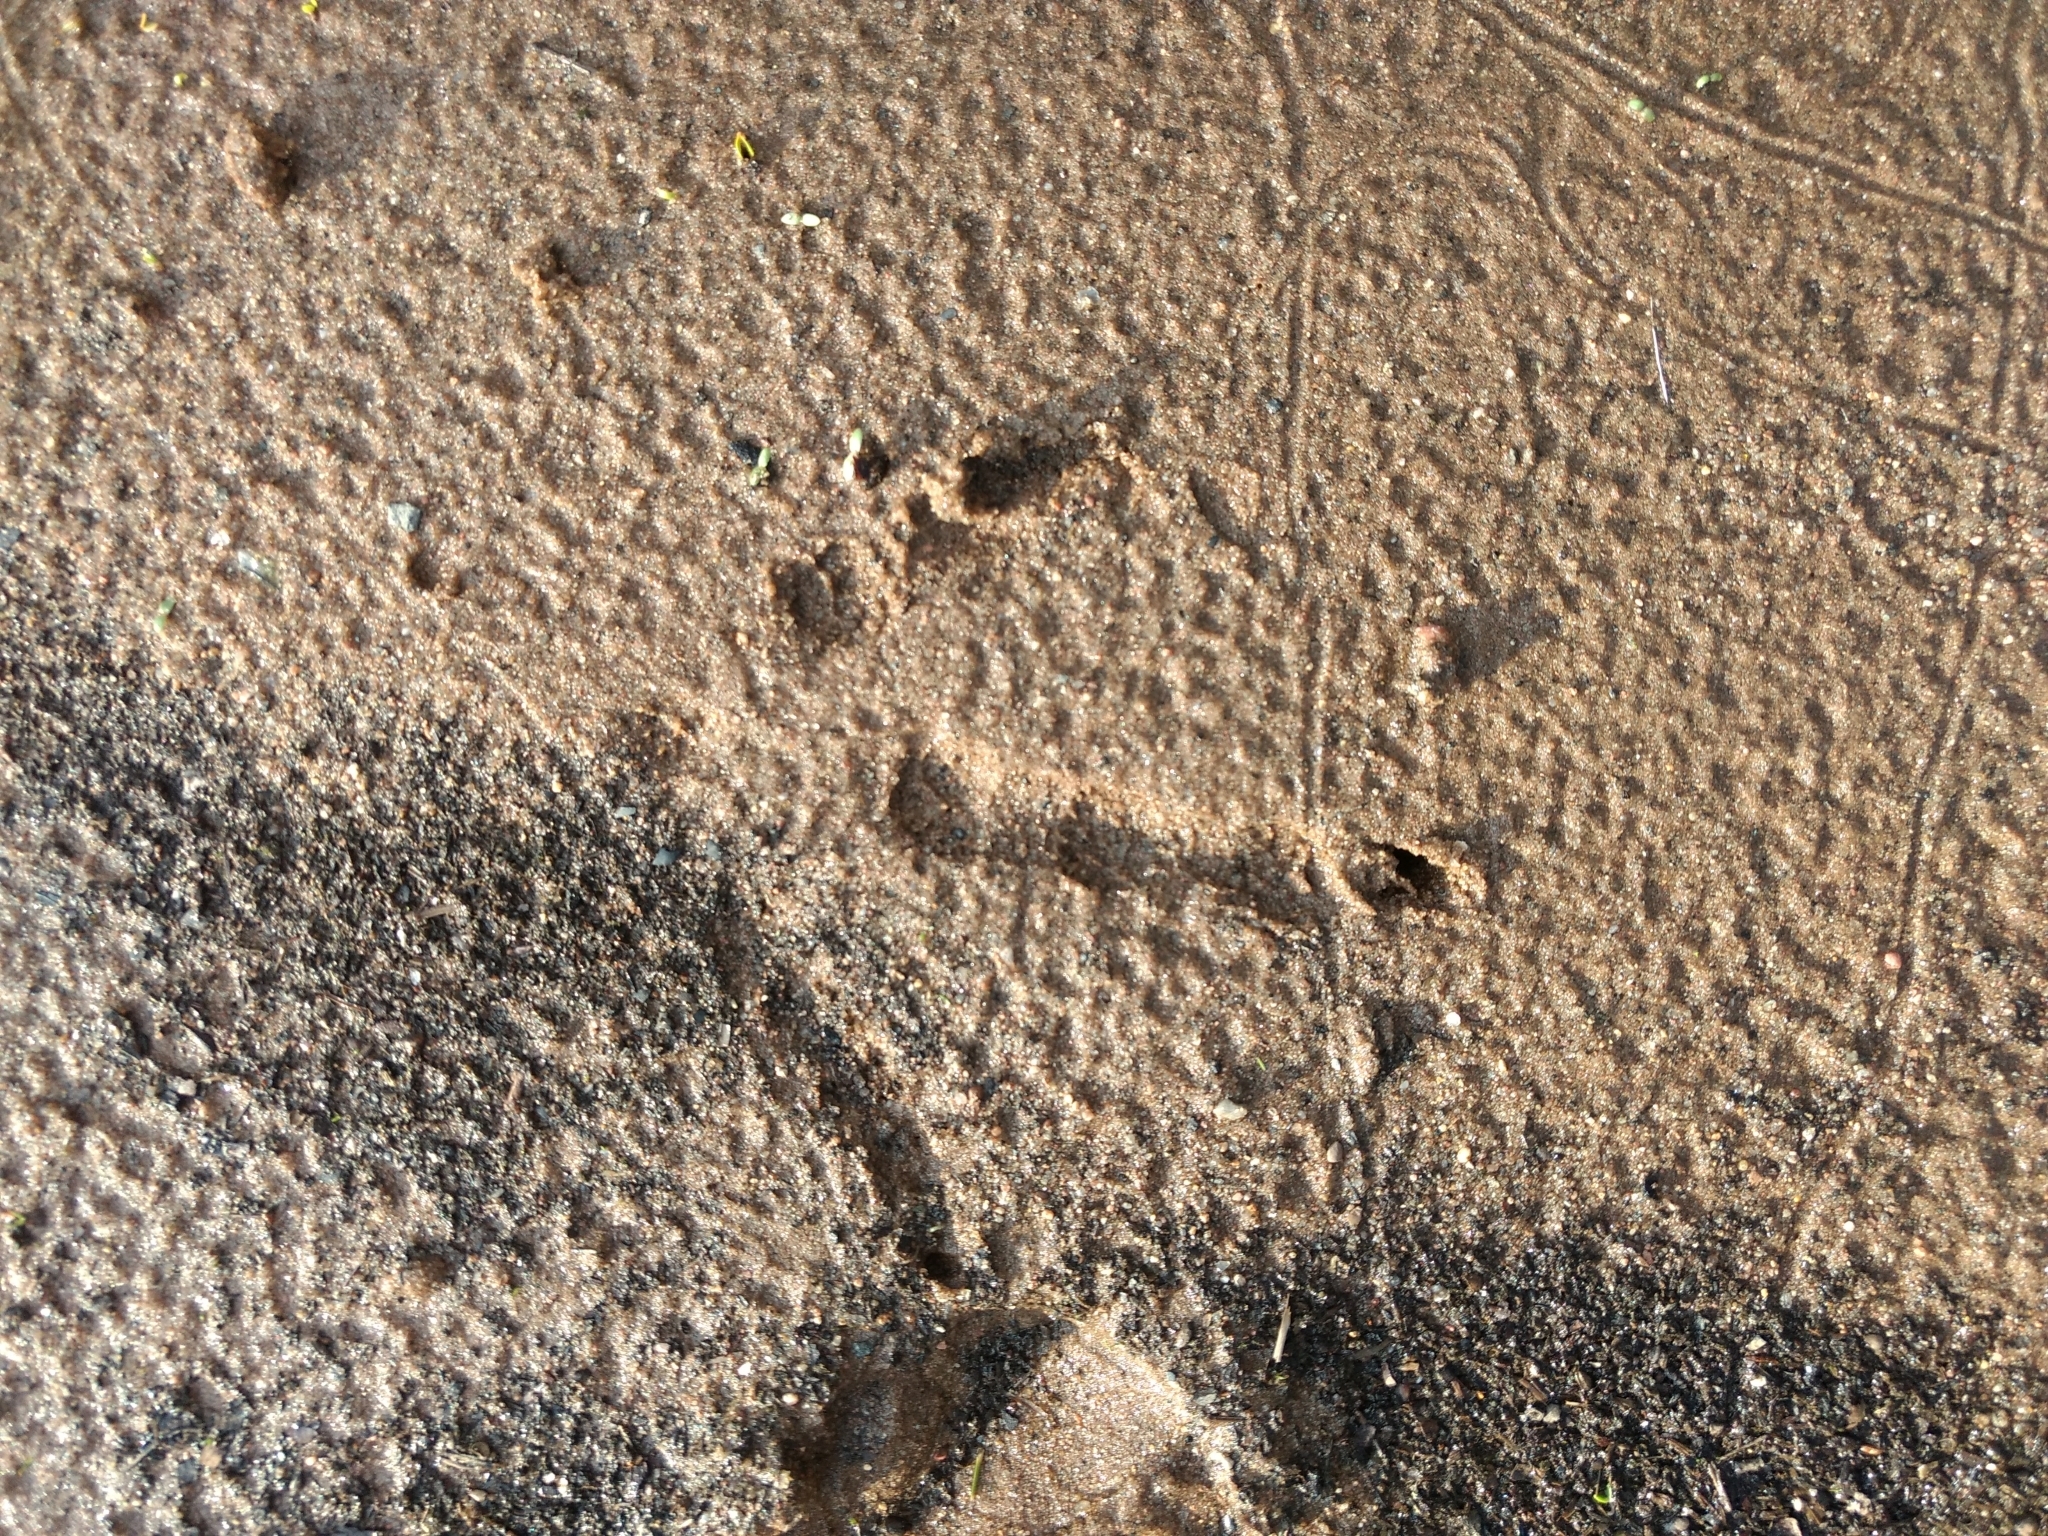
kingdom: Animalia
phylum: Chordata
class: Aves
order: Galliformes
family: Phasianidae
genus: Meleagris
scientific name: Meleagris gallopavo
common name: Wild turkey
